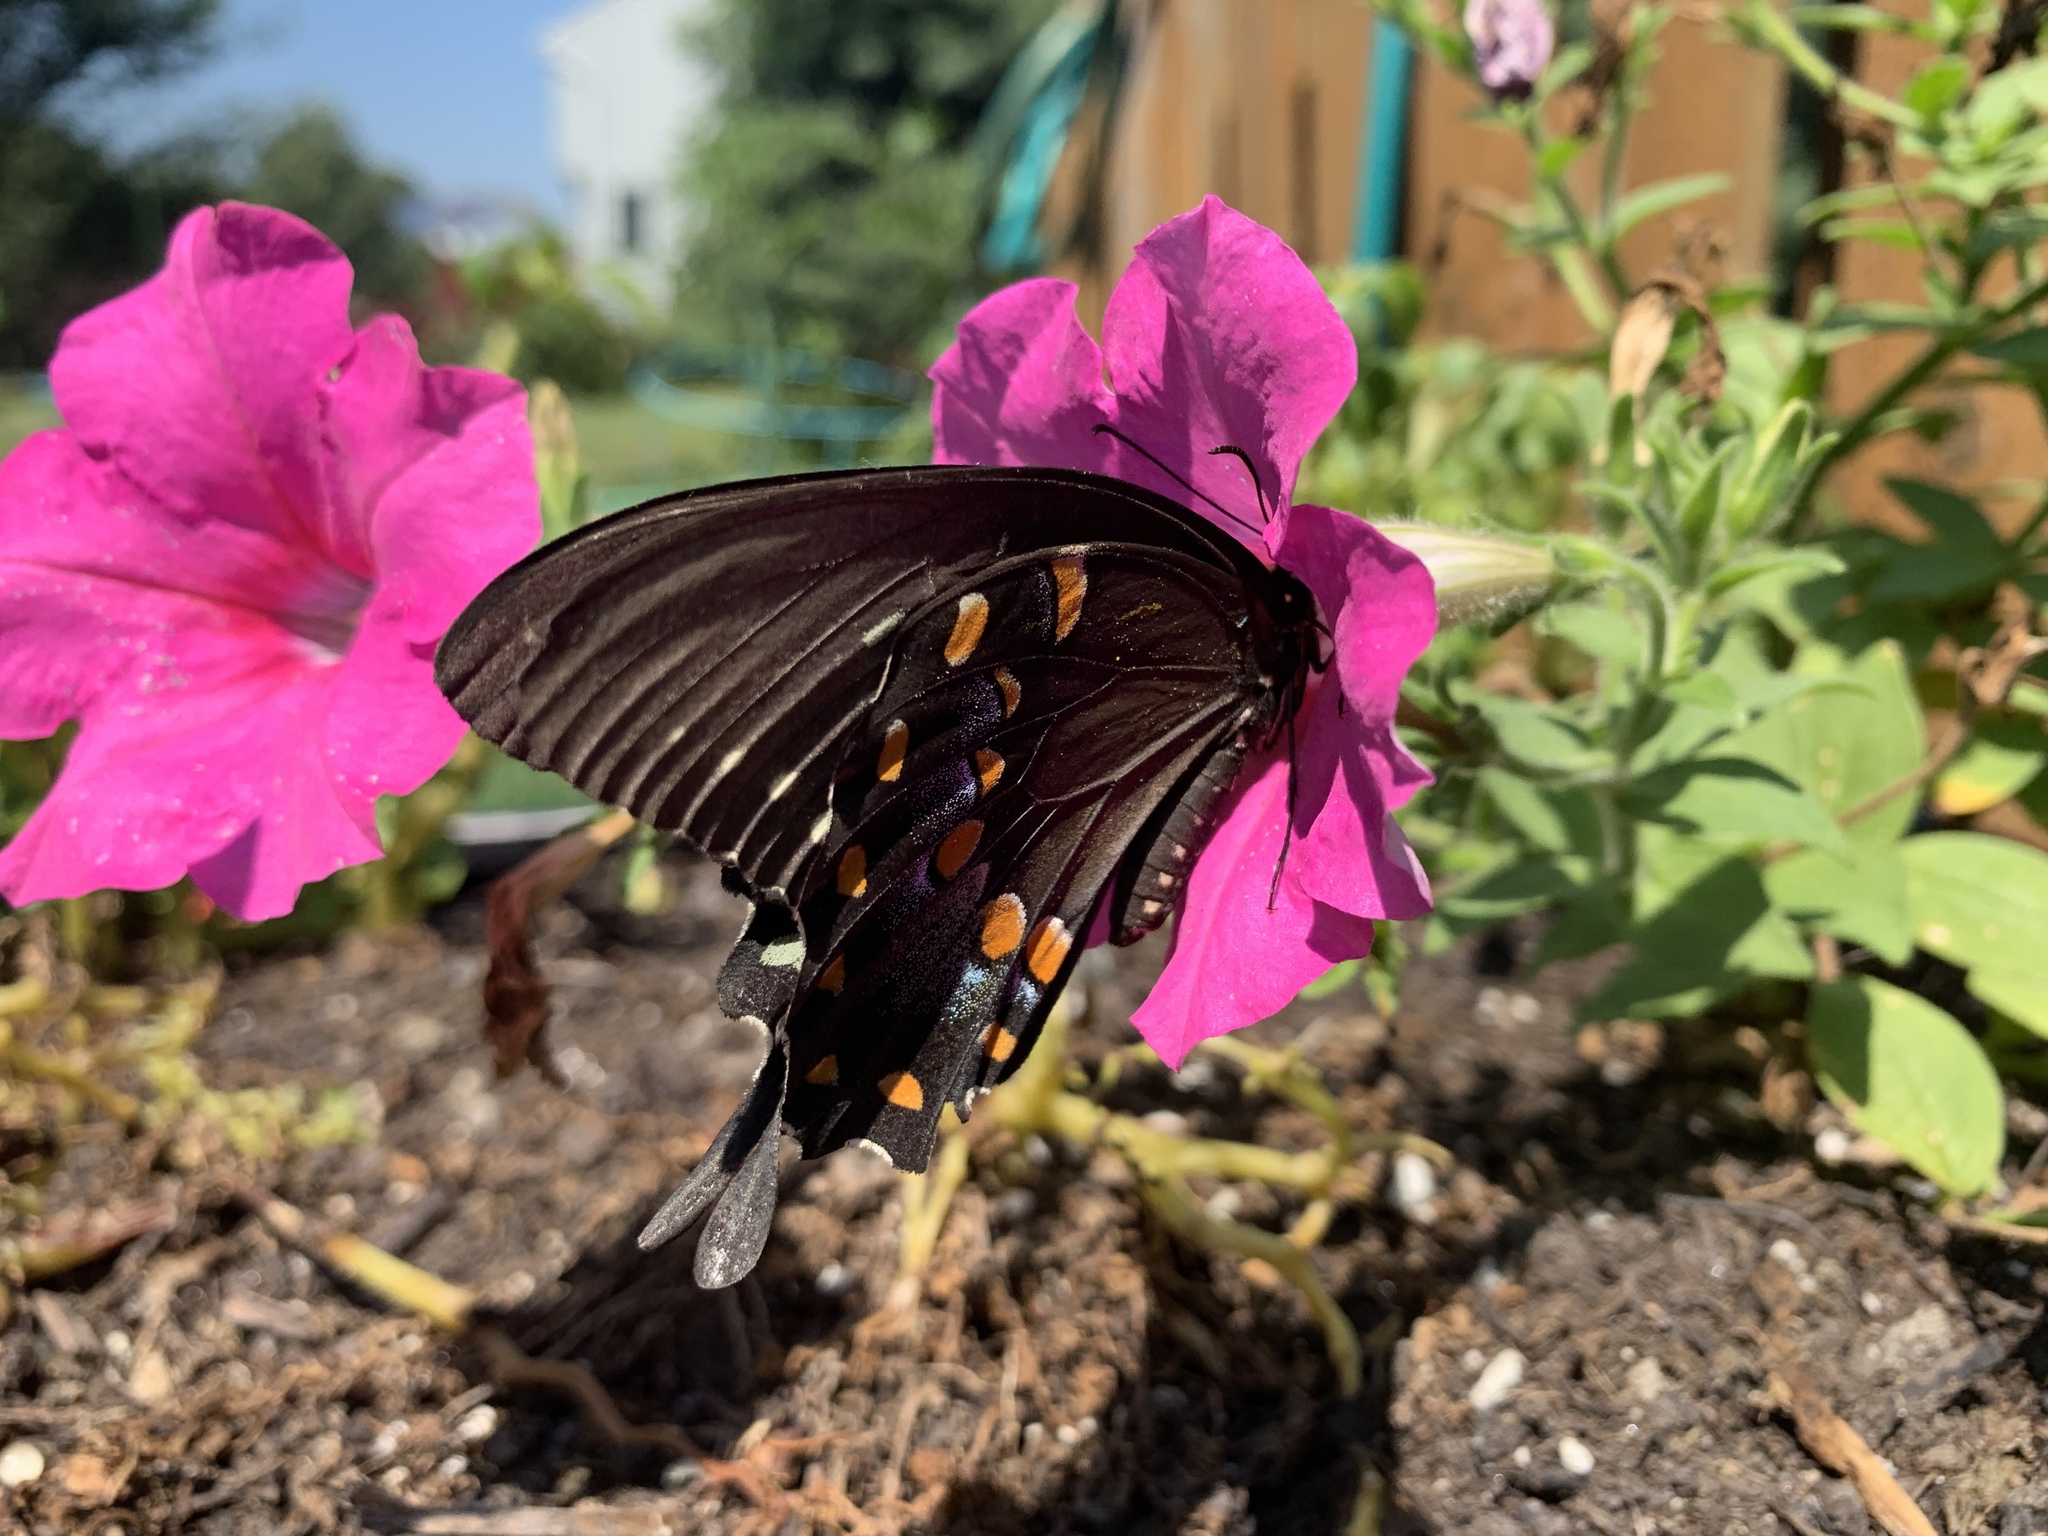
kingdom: Animalia
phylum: Arthropoda
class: Insecta
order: Lepidoptera
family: Papilionidae
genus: Papilio
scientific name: Papilio troilus
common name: Spicebush swallowtail
